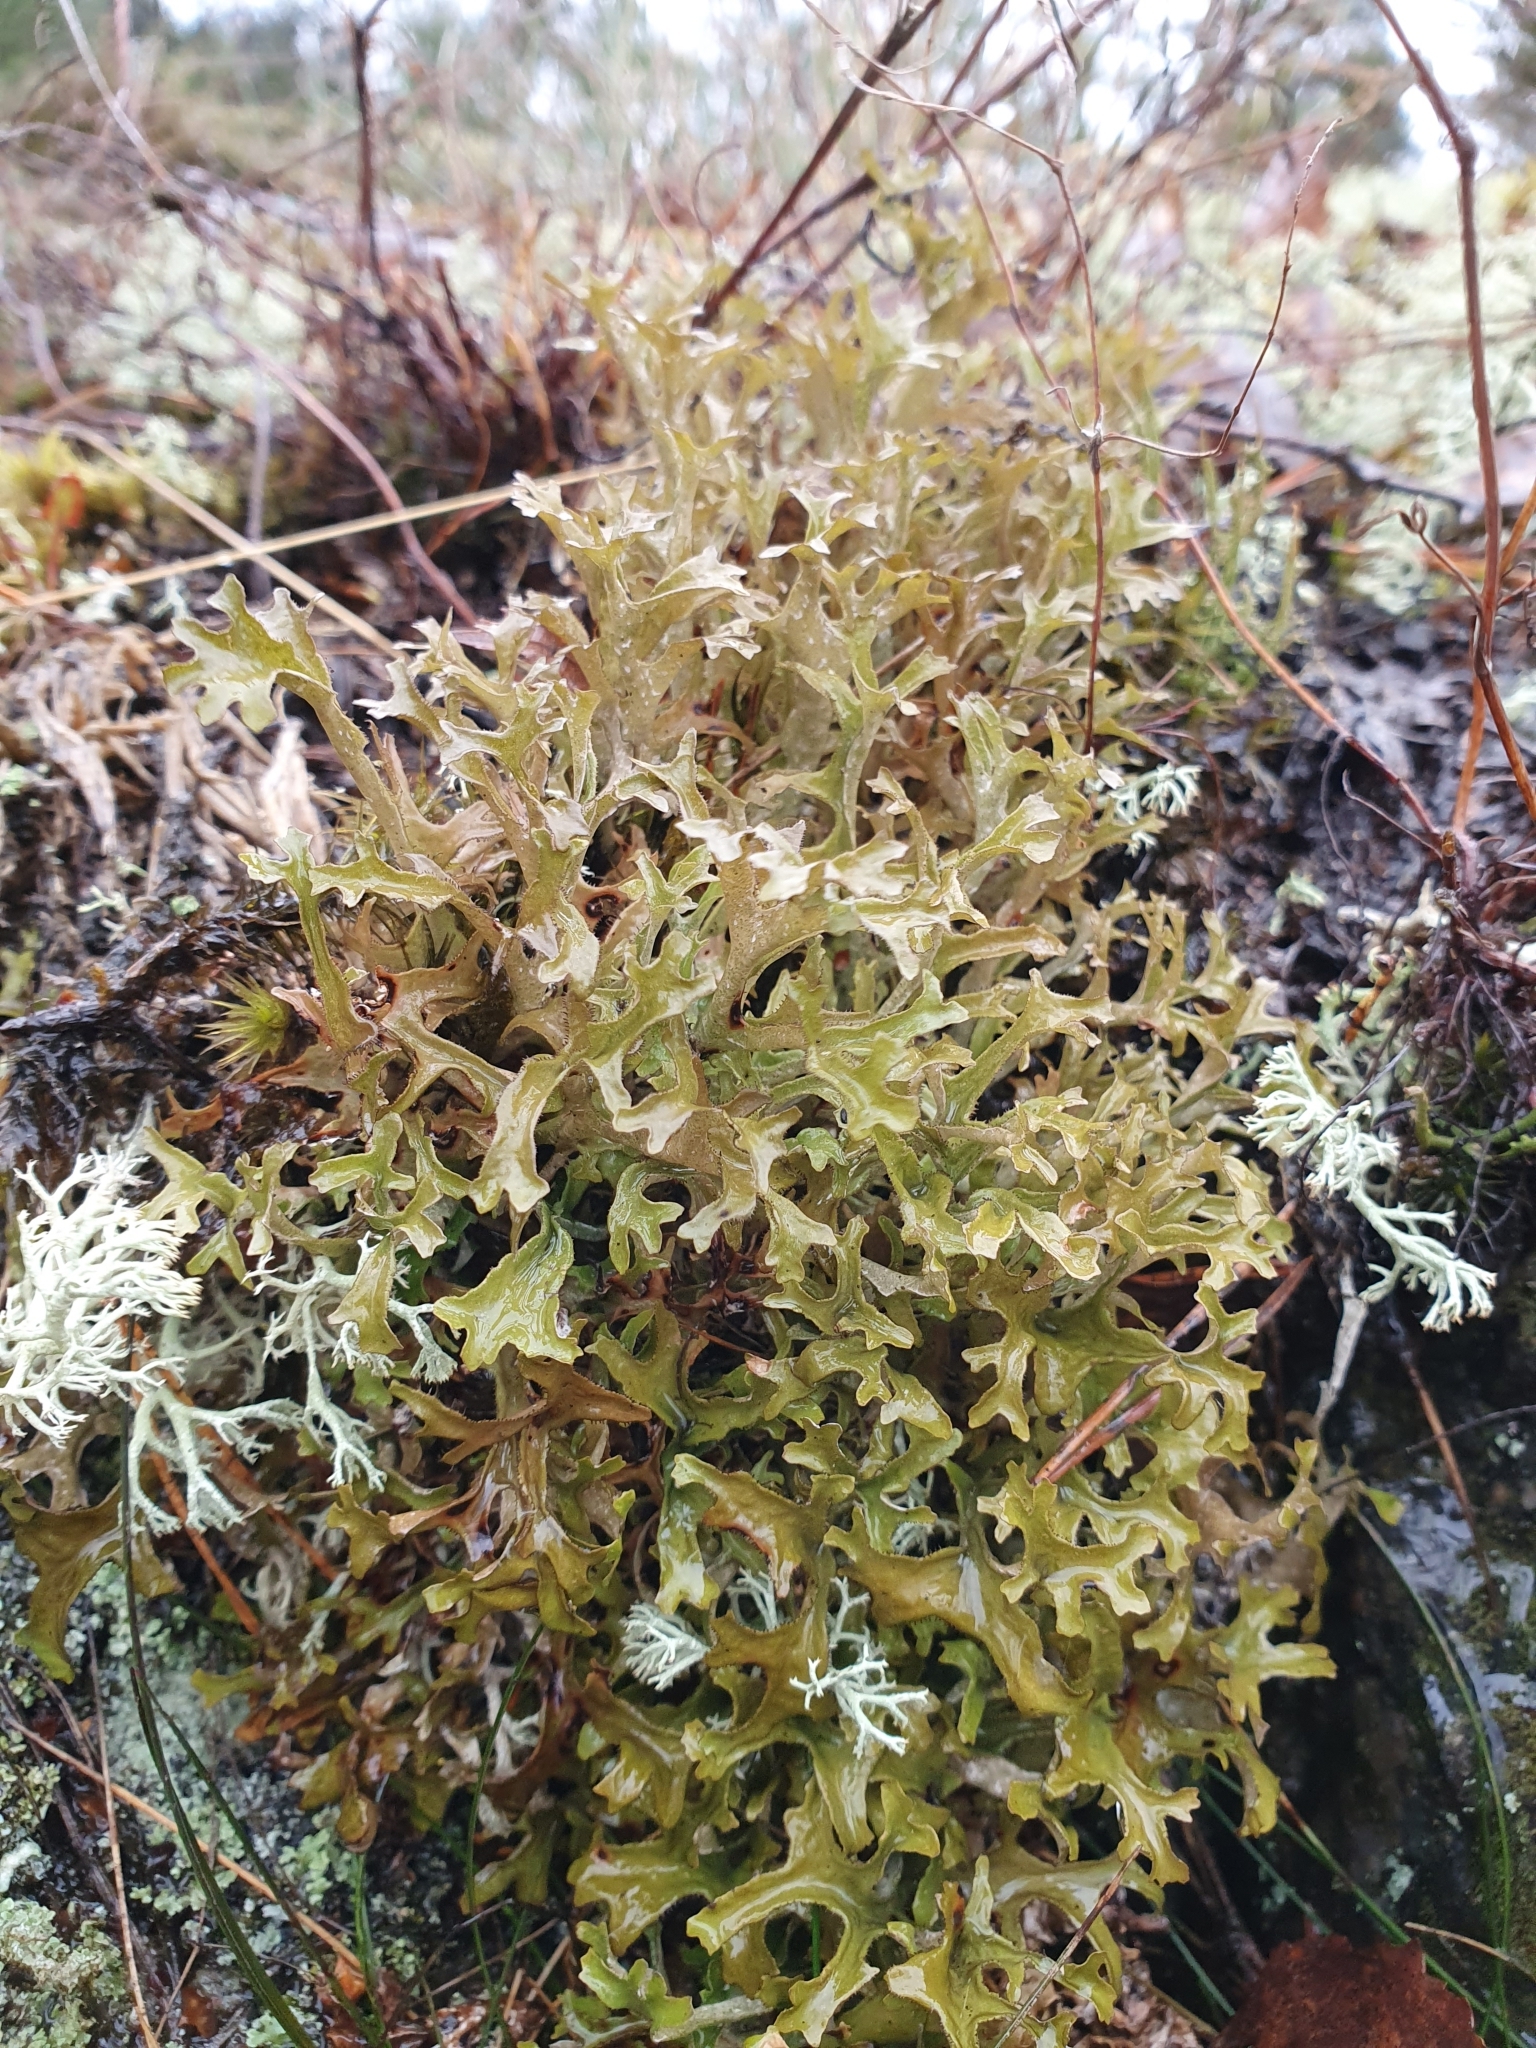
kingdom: Fungi
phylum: Ascomycota
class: Lecanoromycetes
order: Lecanorales
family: Parmeliaceae
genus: Cetraria
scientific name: Cetraria islandica
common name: Iceland lichen
